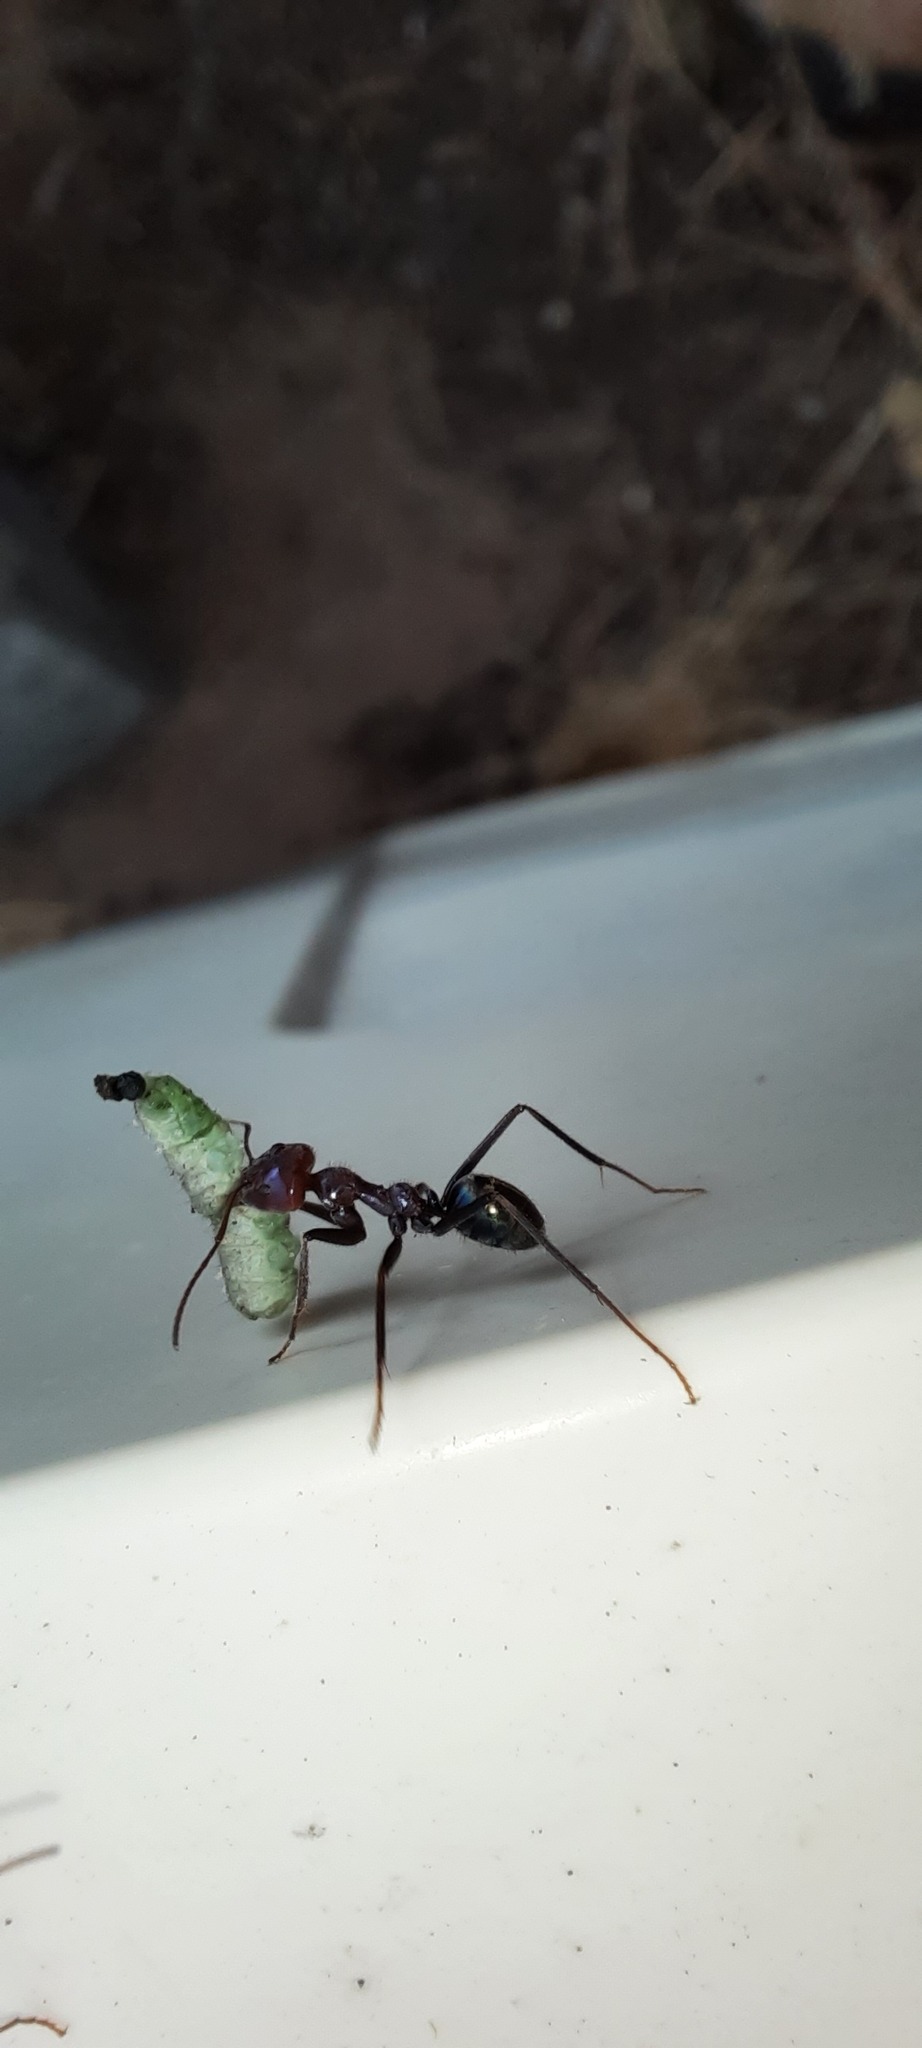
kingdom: Animalia
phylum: Arthropoda
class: Insecta
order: Hymenoptera
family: Formicidae
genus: Iridomyrmex
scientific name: Iridomyrmex purpureus
